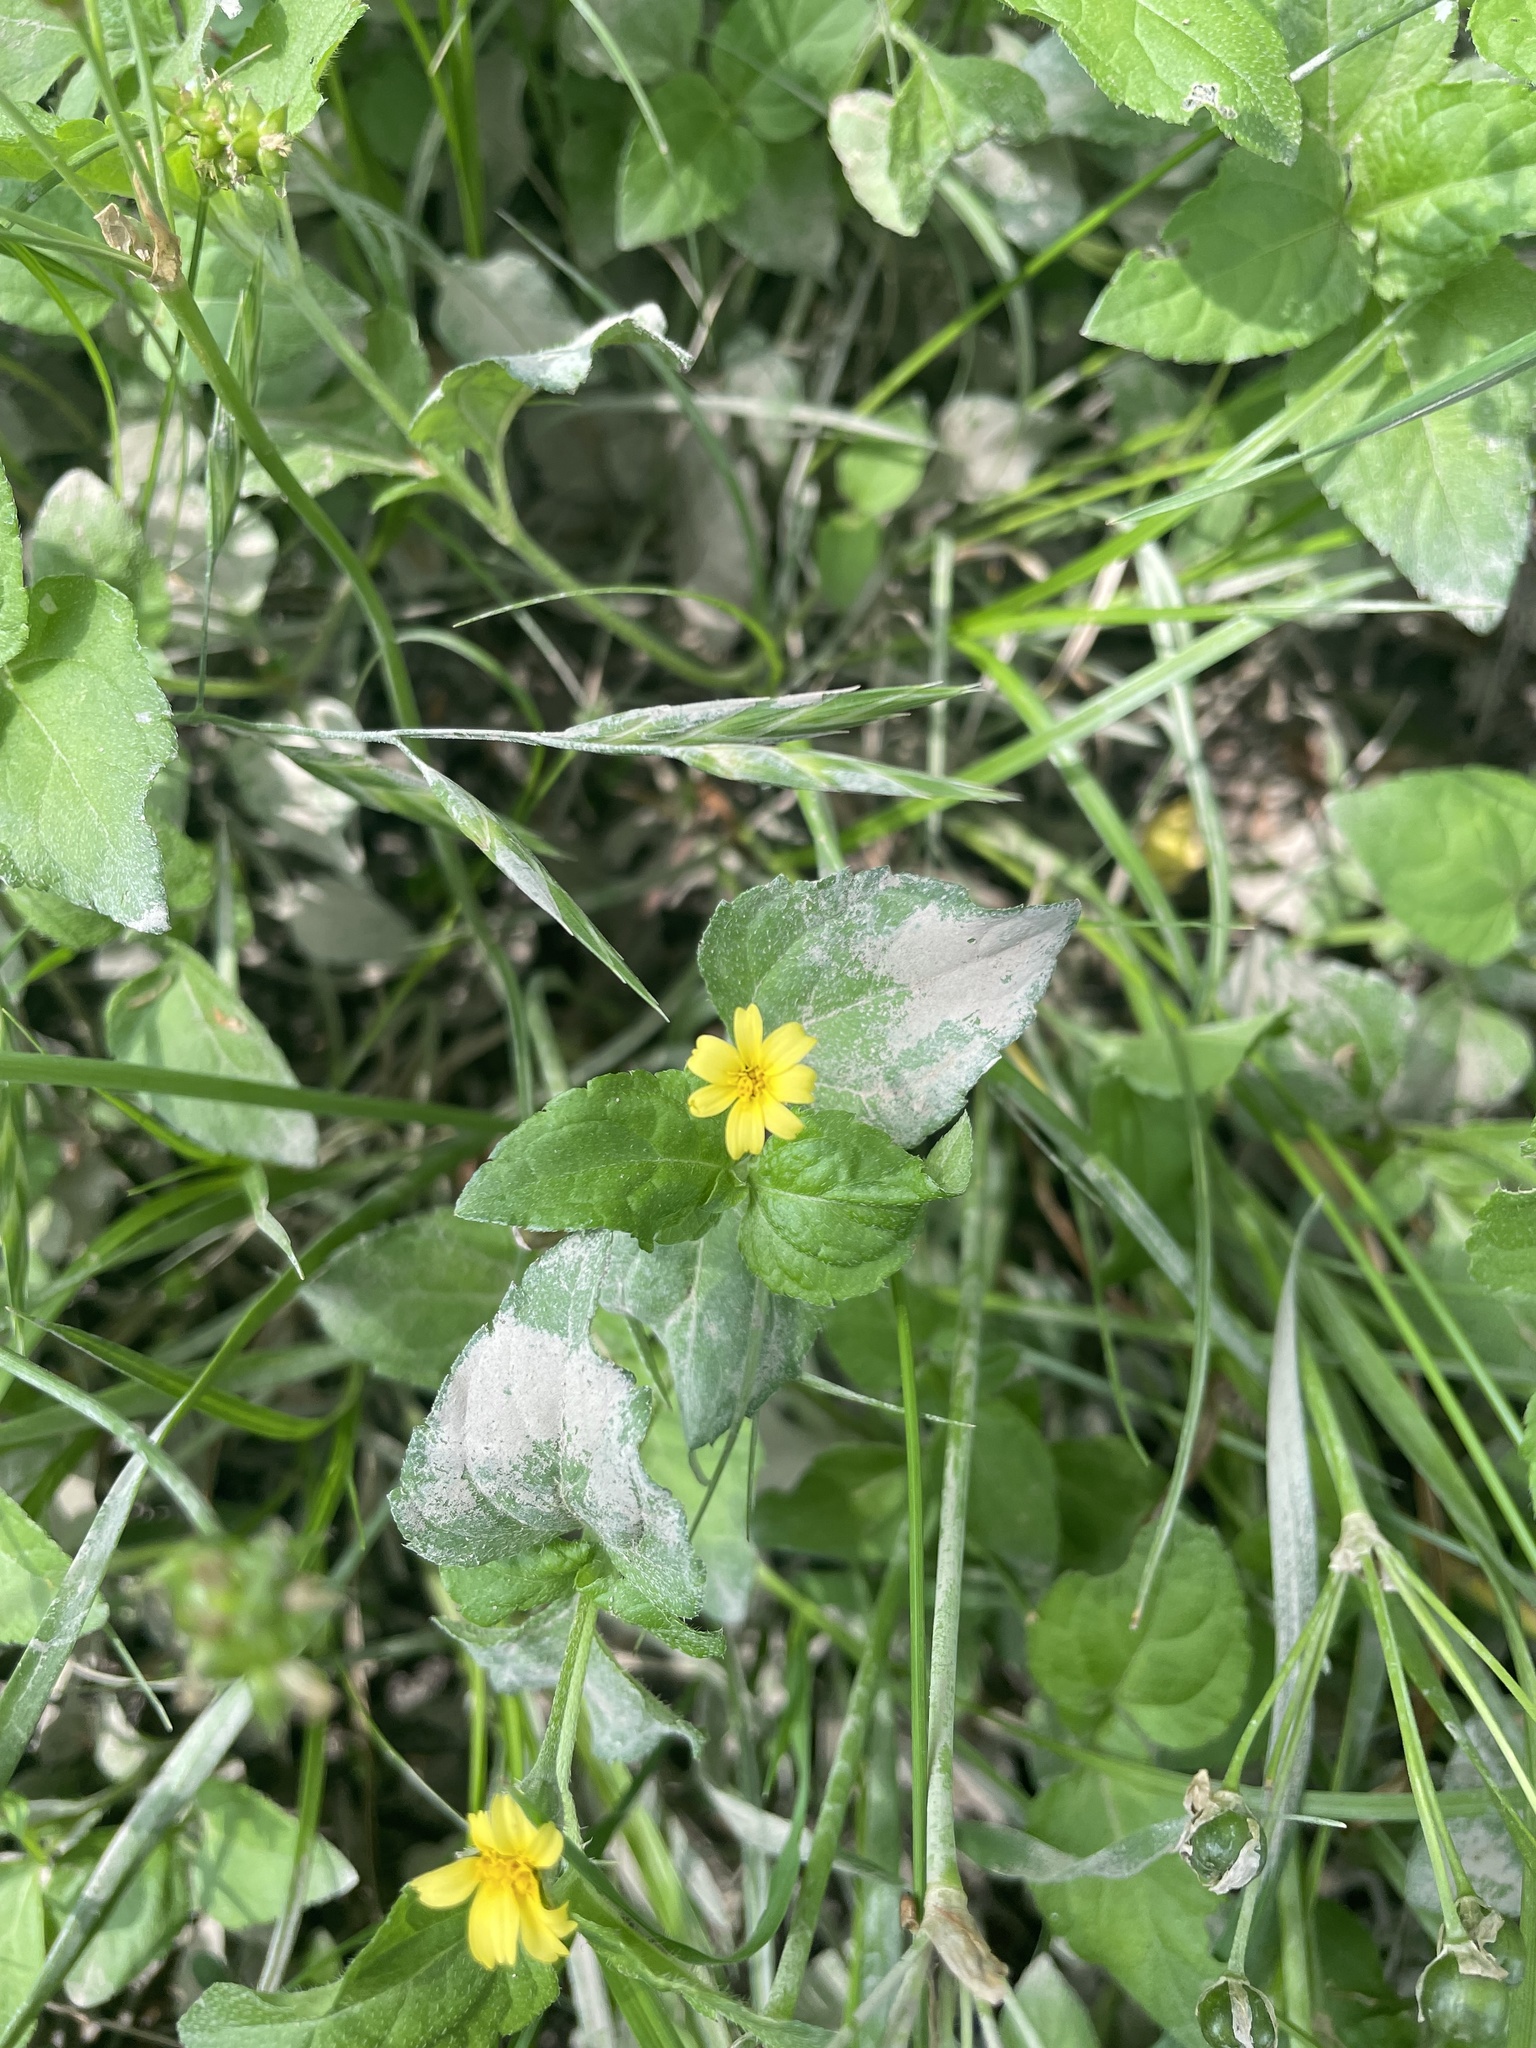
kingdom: Plantae
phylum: Tracheophyta
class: Magnoliopsida
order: Asterales
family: Asteraceae
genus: Calyptocarpus
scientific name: Calyptocarpus vialis
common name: Straggler daisy
